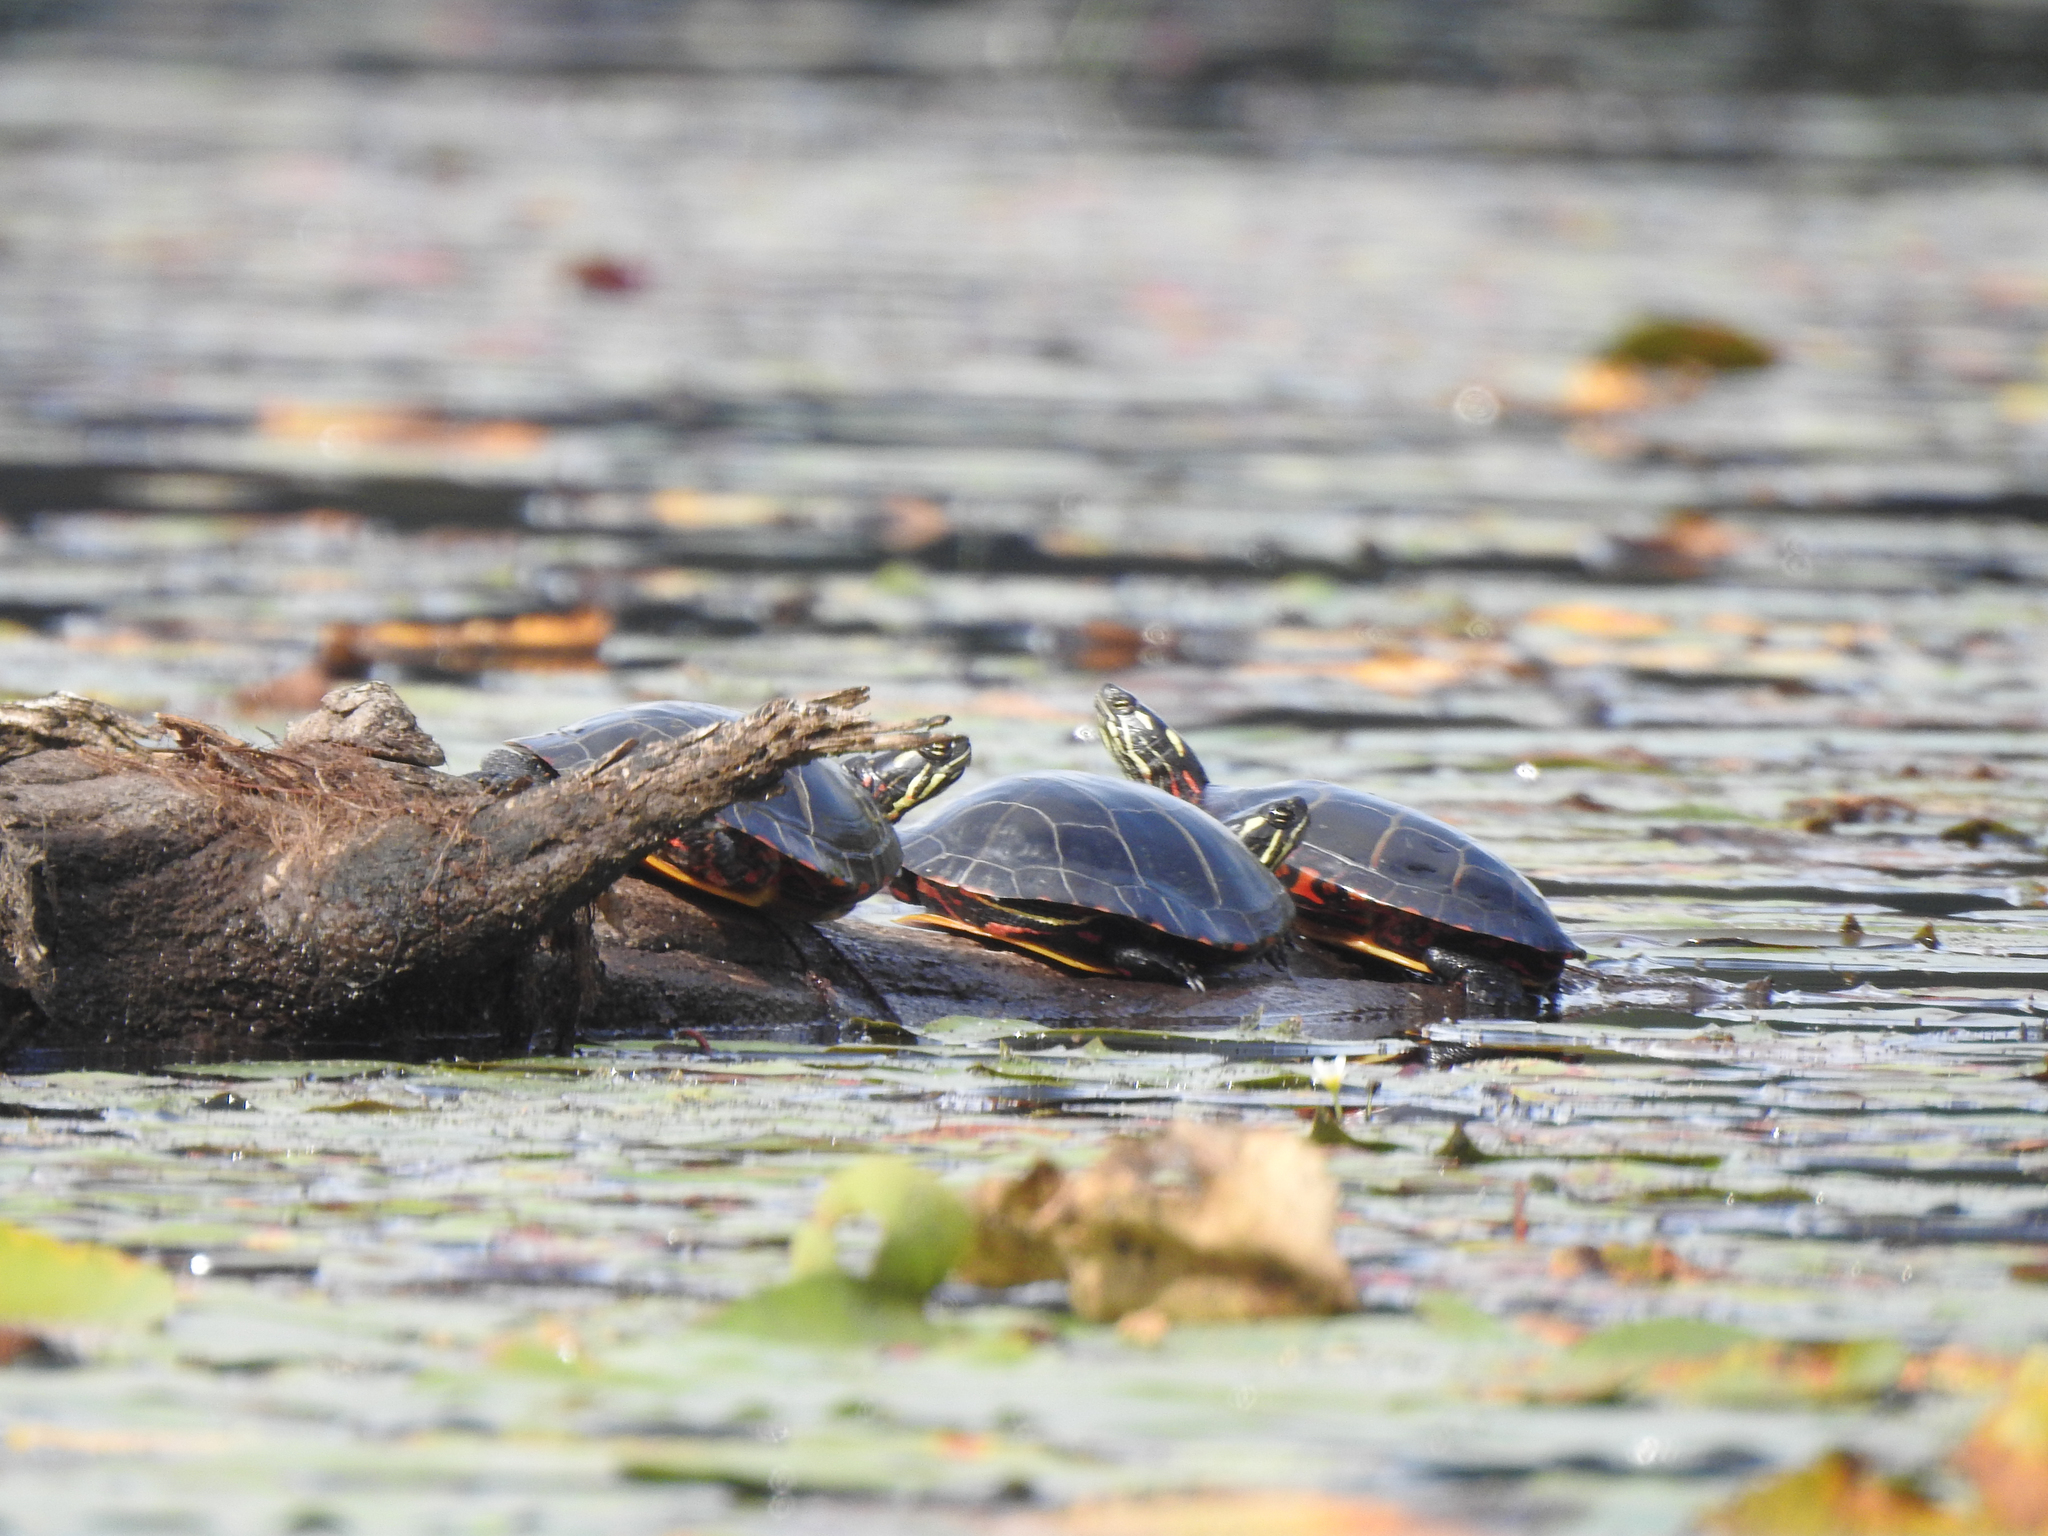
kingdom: Animalia
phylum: Chordata
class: Testudines
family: Emydidae
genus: Chrysemys
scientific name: Chrysemys picta
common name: Painted turtle
